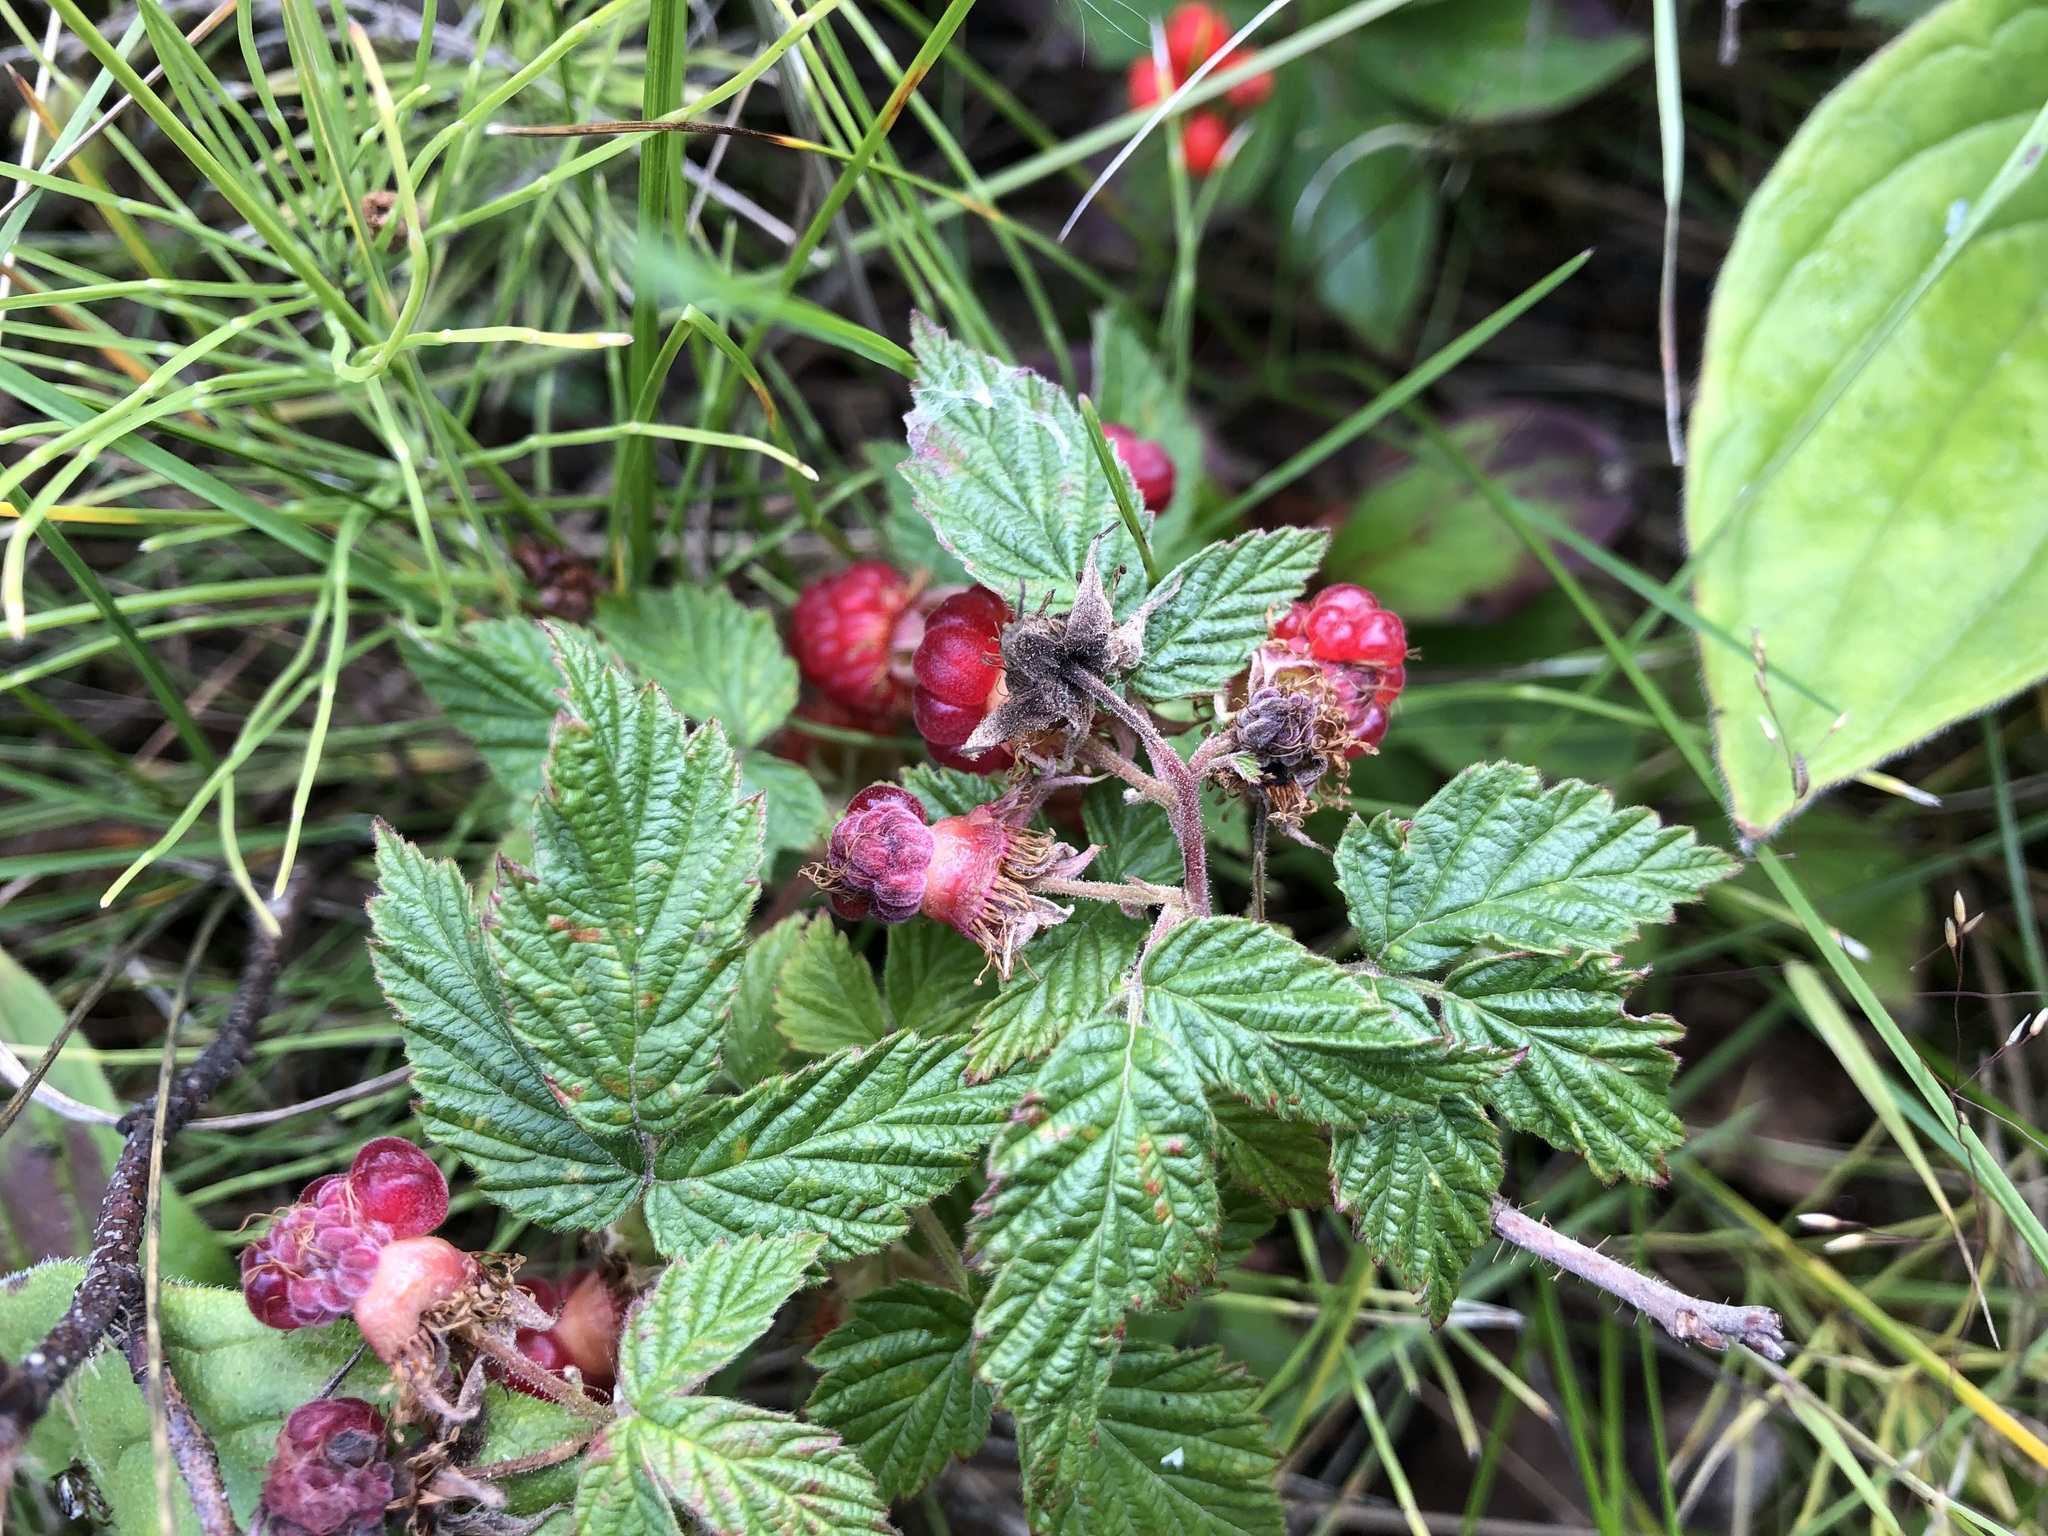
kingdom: Plantae
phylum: Tracheophyta
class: Magnoliopsida
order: Rosales
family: Rosaceae
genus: Rubus
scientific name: Rubus idaeus
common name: Raspberry
